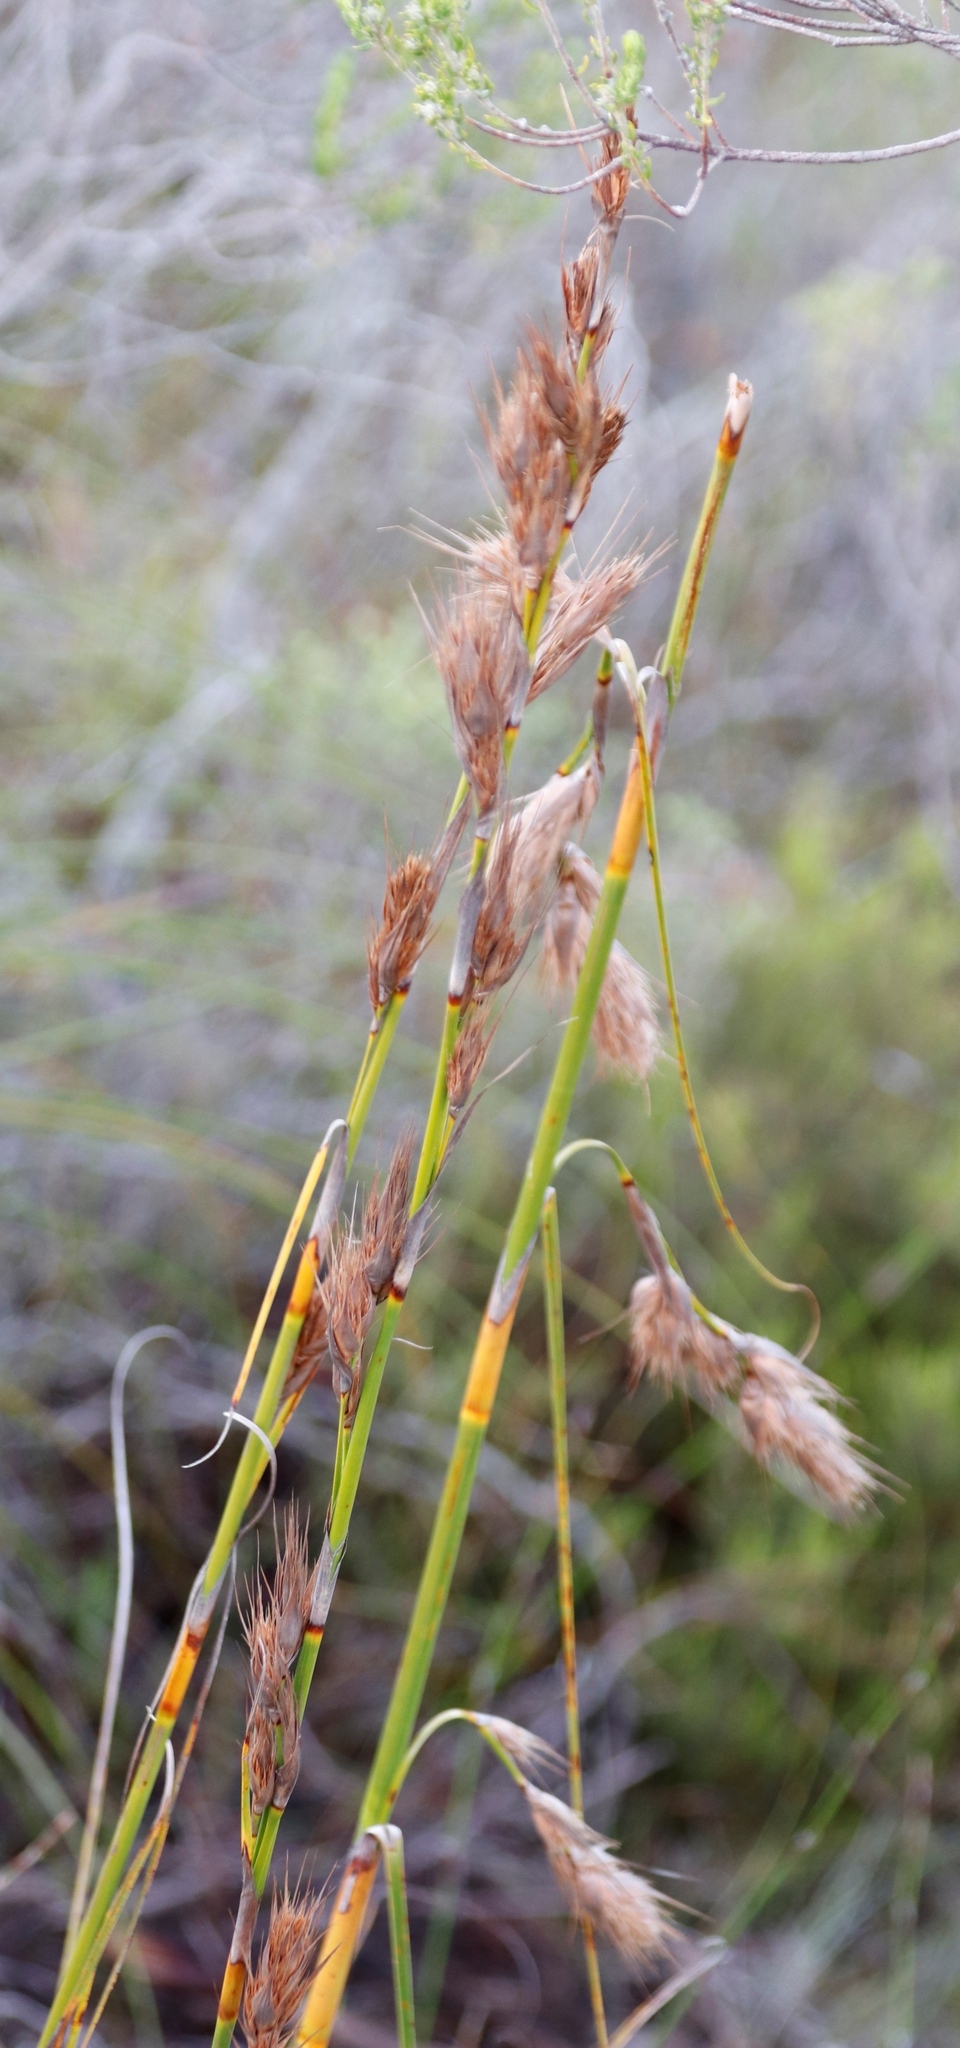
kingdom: Plantae
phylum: Tracheophyta
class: Liliopsida
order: Poales
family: Cyperaceae
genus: Tetraria
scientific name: Tetraria bromoides
